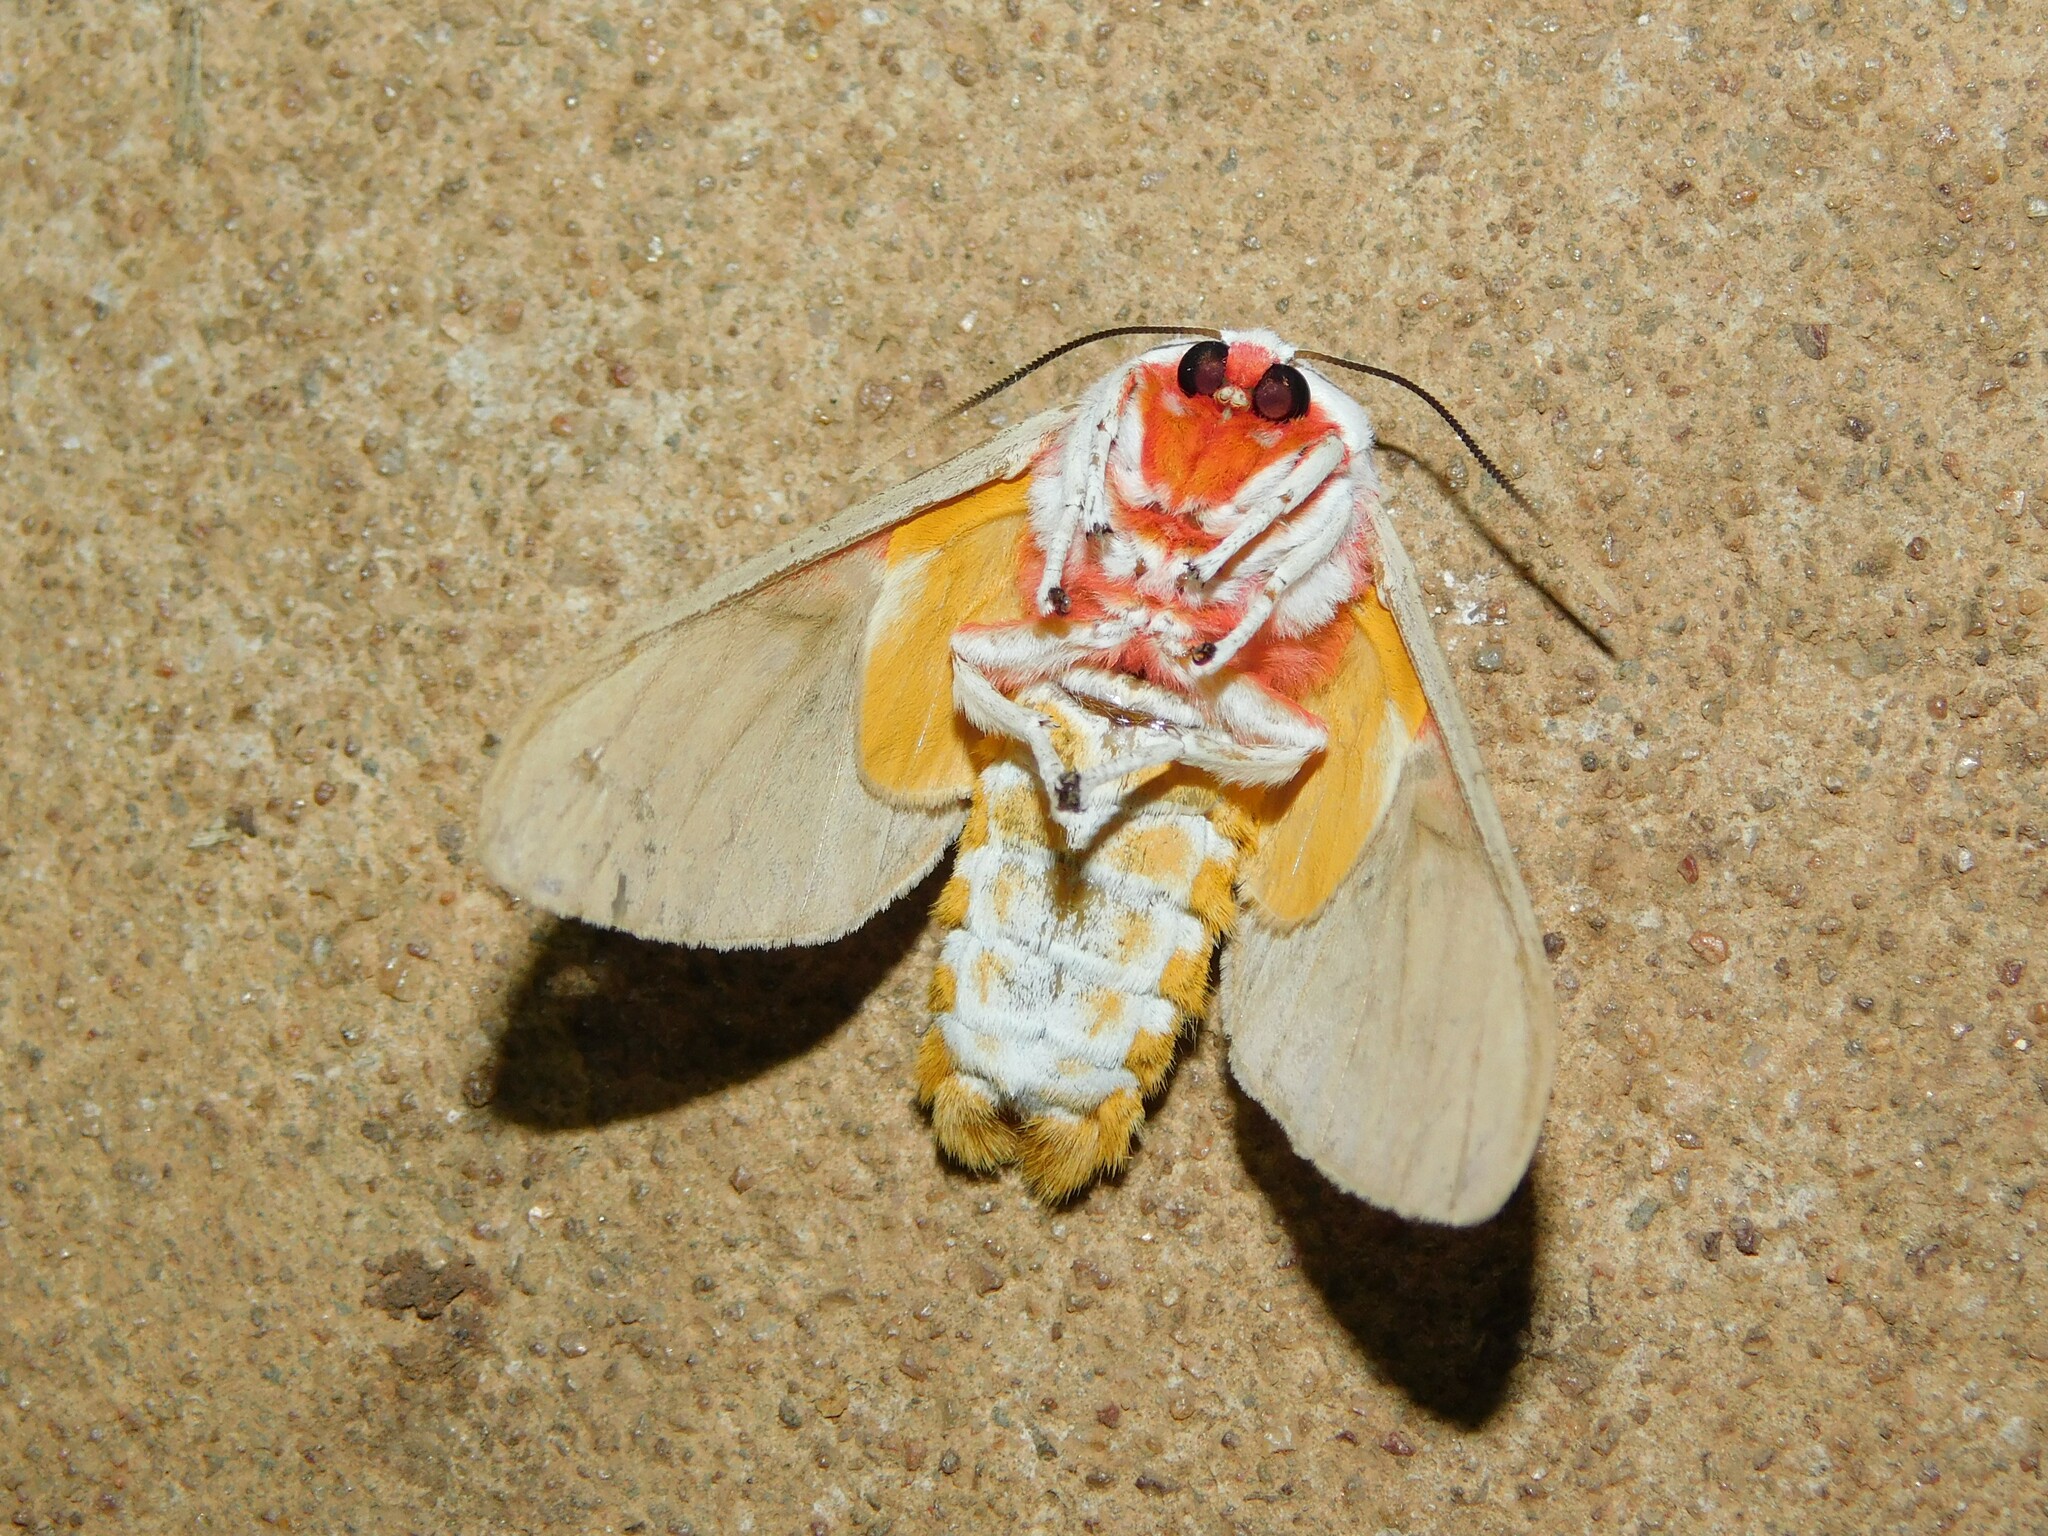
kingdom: Animalia
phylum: Arthropoda
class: Insecta
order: Lepidoptera
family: Erebidae
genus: Balacra
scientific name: Balacra herona
